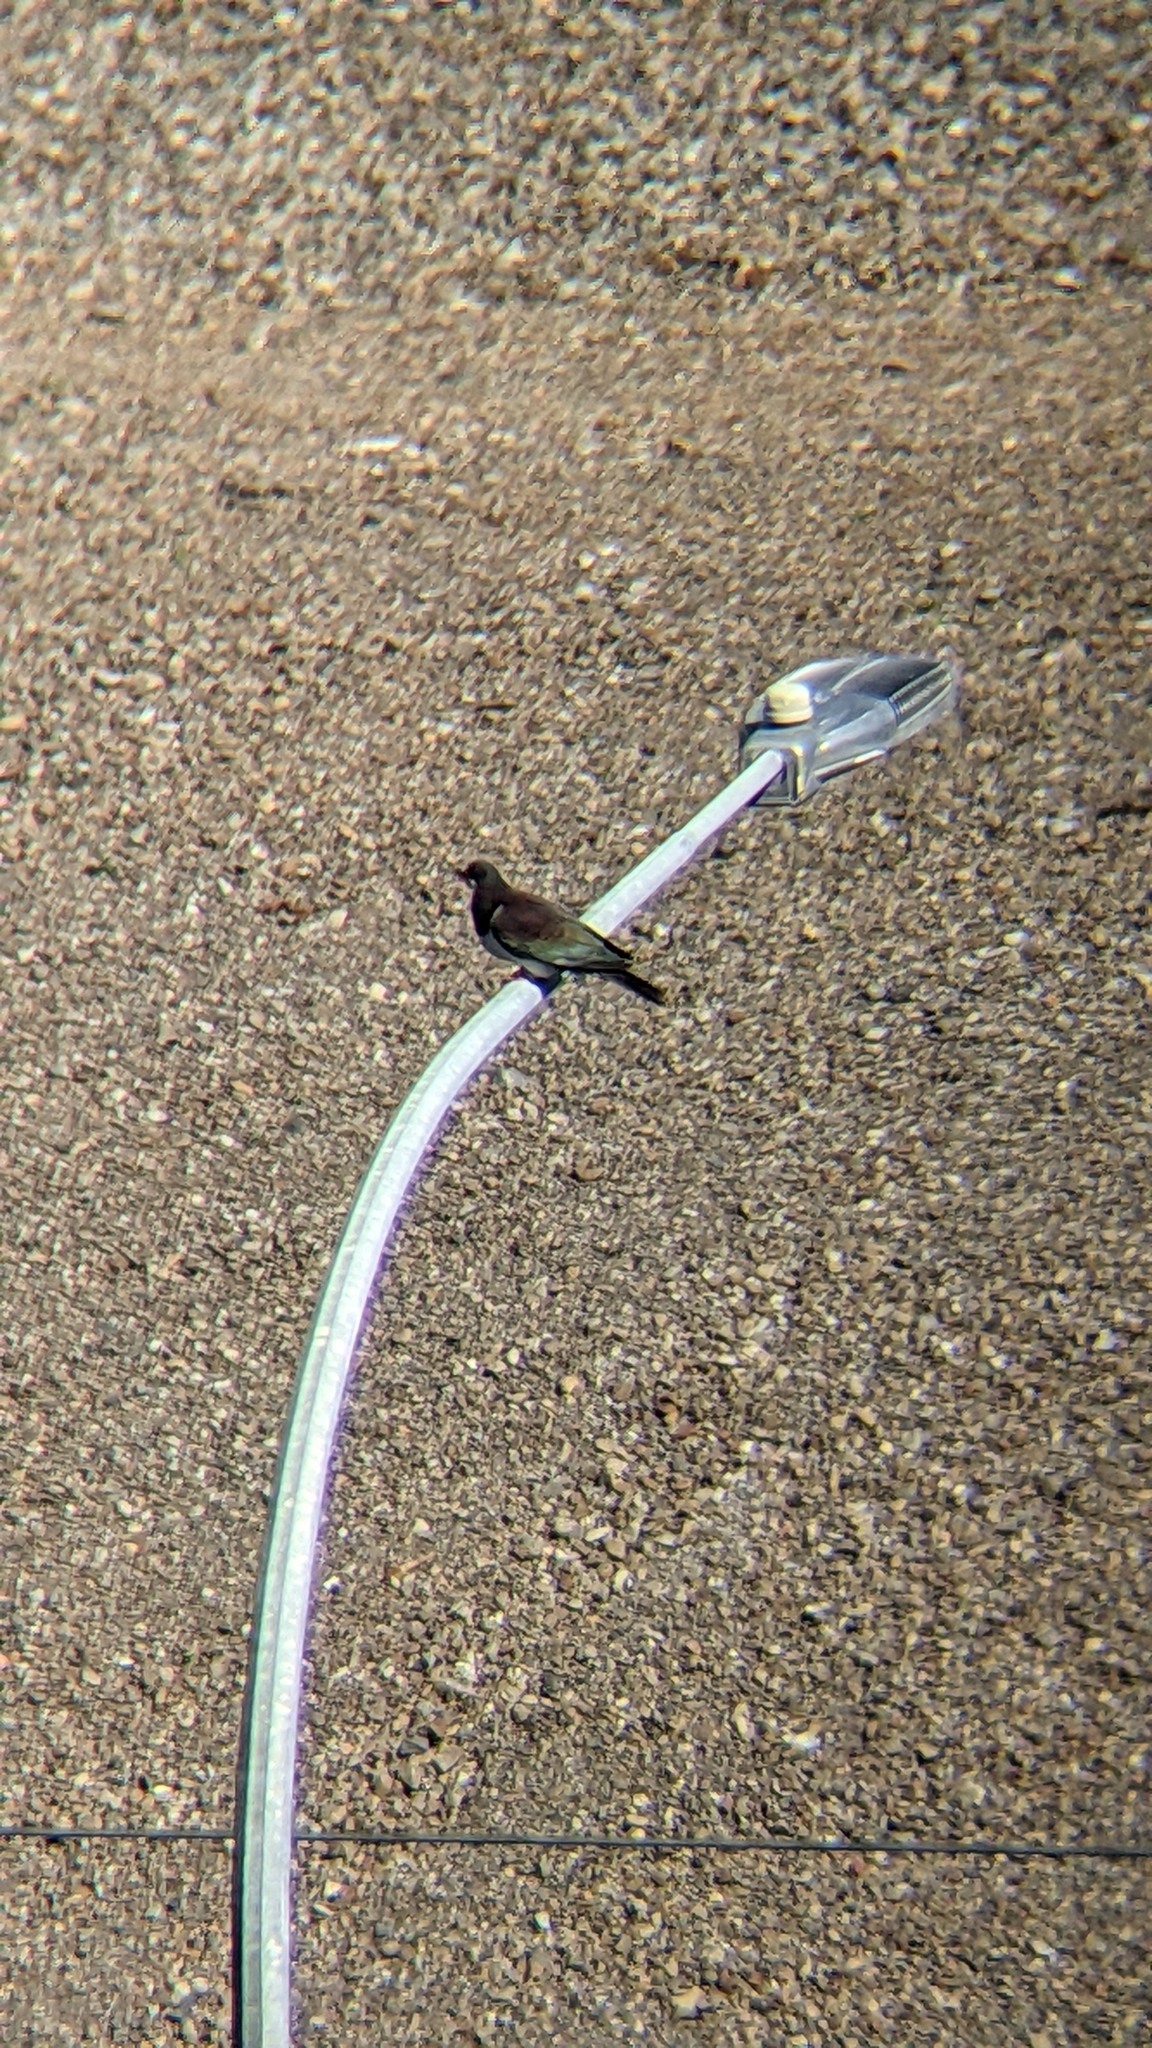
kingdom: Animalia
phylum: Chordata
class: Aves
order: Columbiformes
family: Columbidae
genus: Hemiphaga
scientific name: Hemiphaga novaeseelandiae
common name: New zealand pigeon
